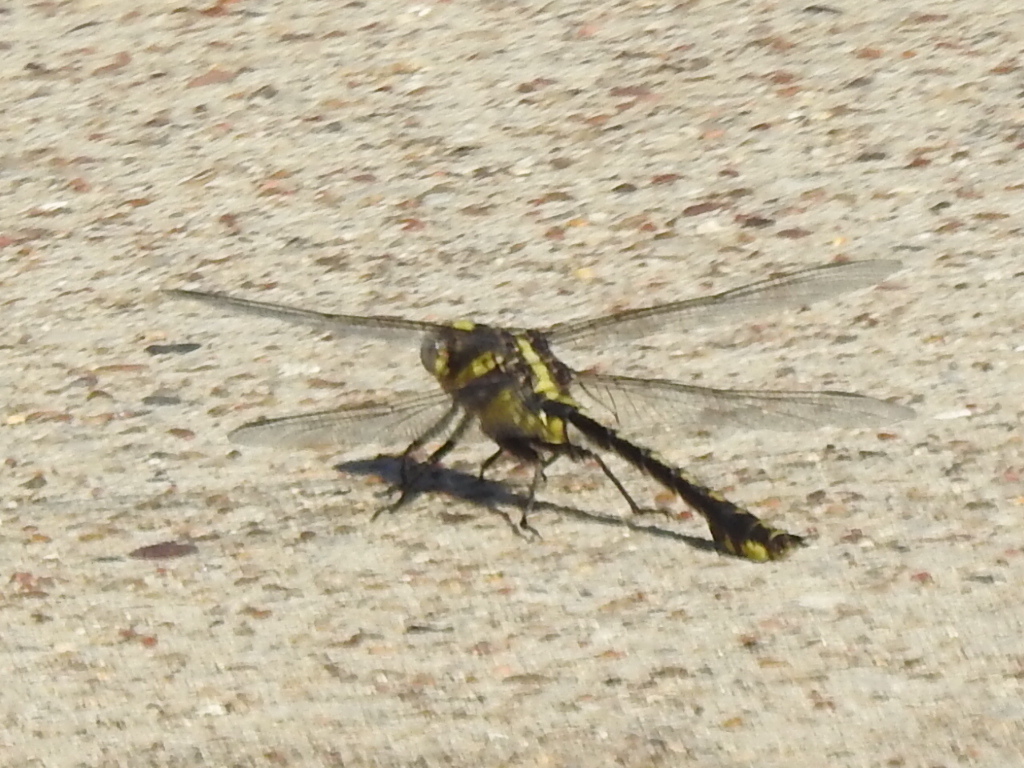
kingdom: Animalia
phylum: Arthropoda
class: Insecta
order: Odonata
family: Gomphidae
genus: Gomphurus
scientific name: Gomphurus externus
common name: Plains clubtail
